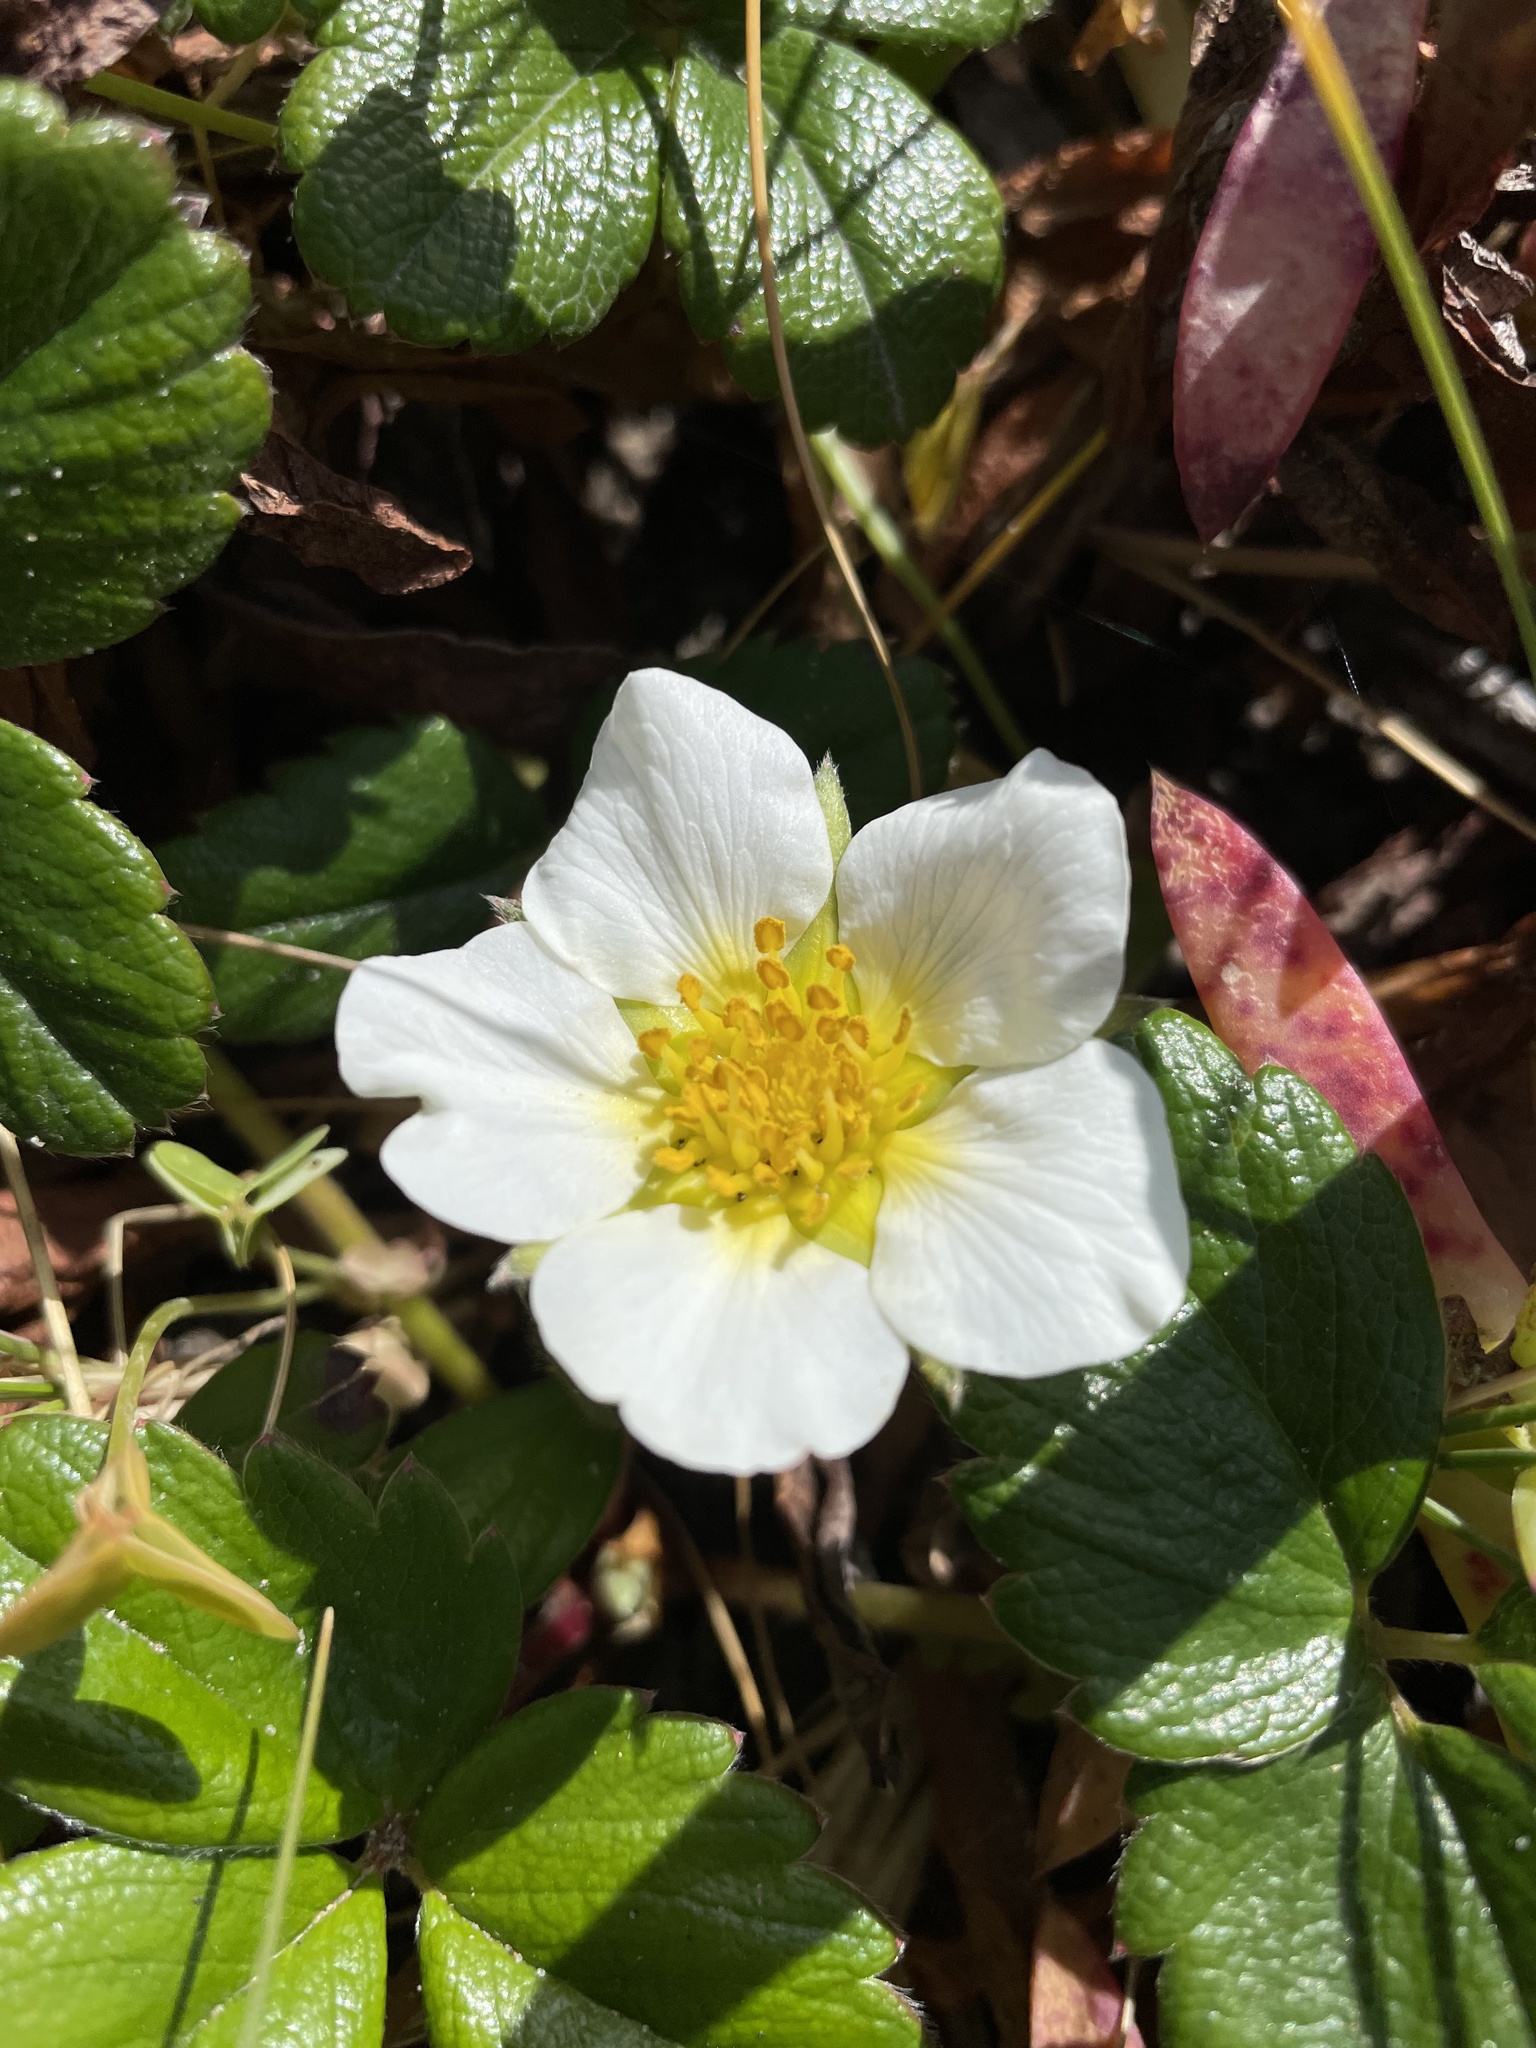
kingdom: Plantae
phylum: Tracheophyta
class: Magnoliopsida
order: Rosales
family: Rosaceae
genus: Fragaria
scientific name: Fragaria chiloensis
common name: Beach strawberry
